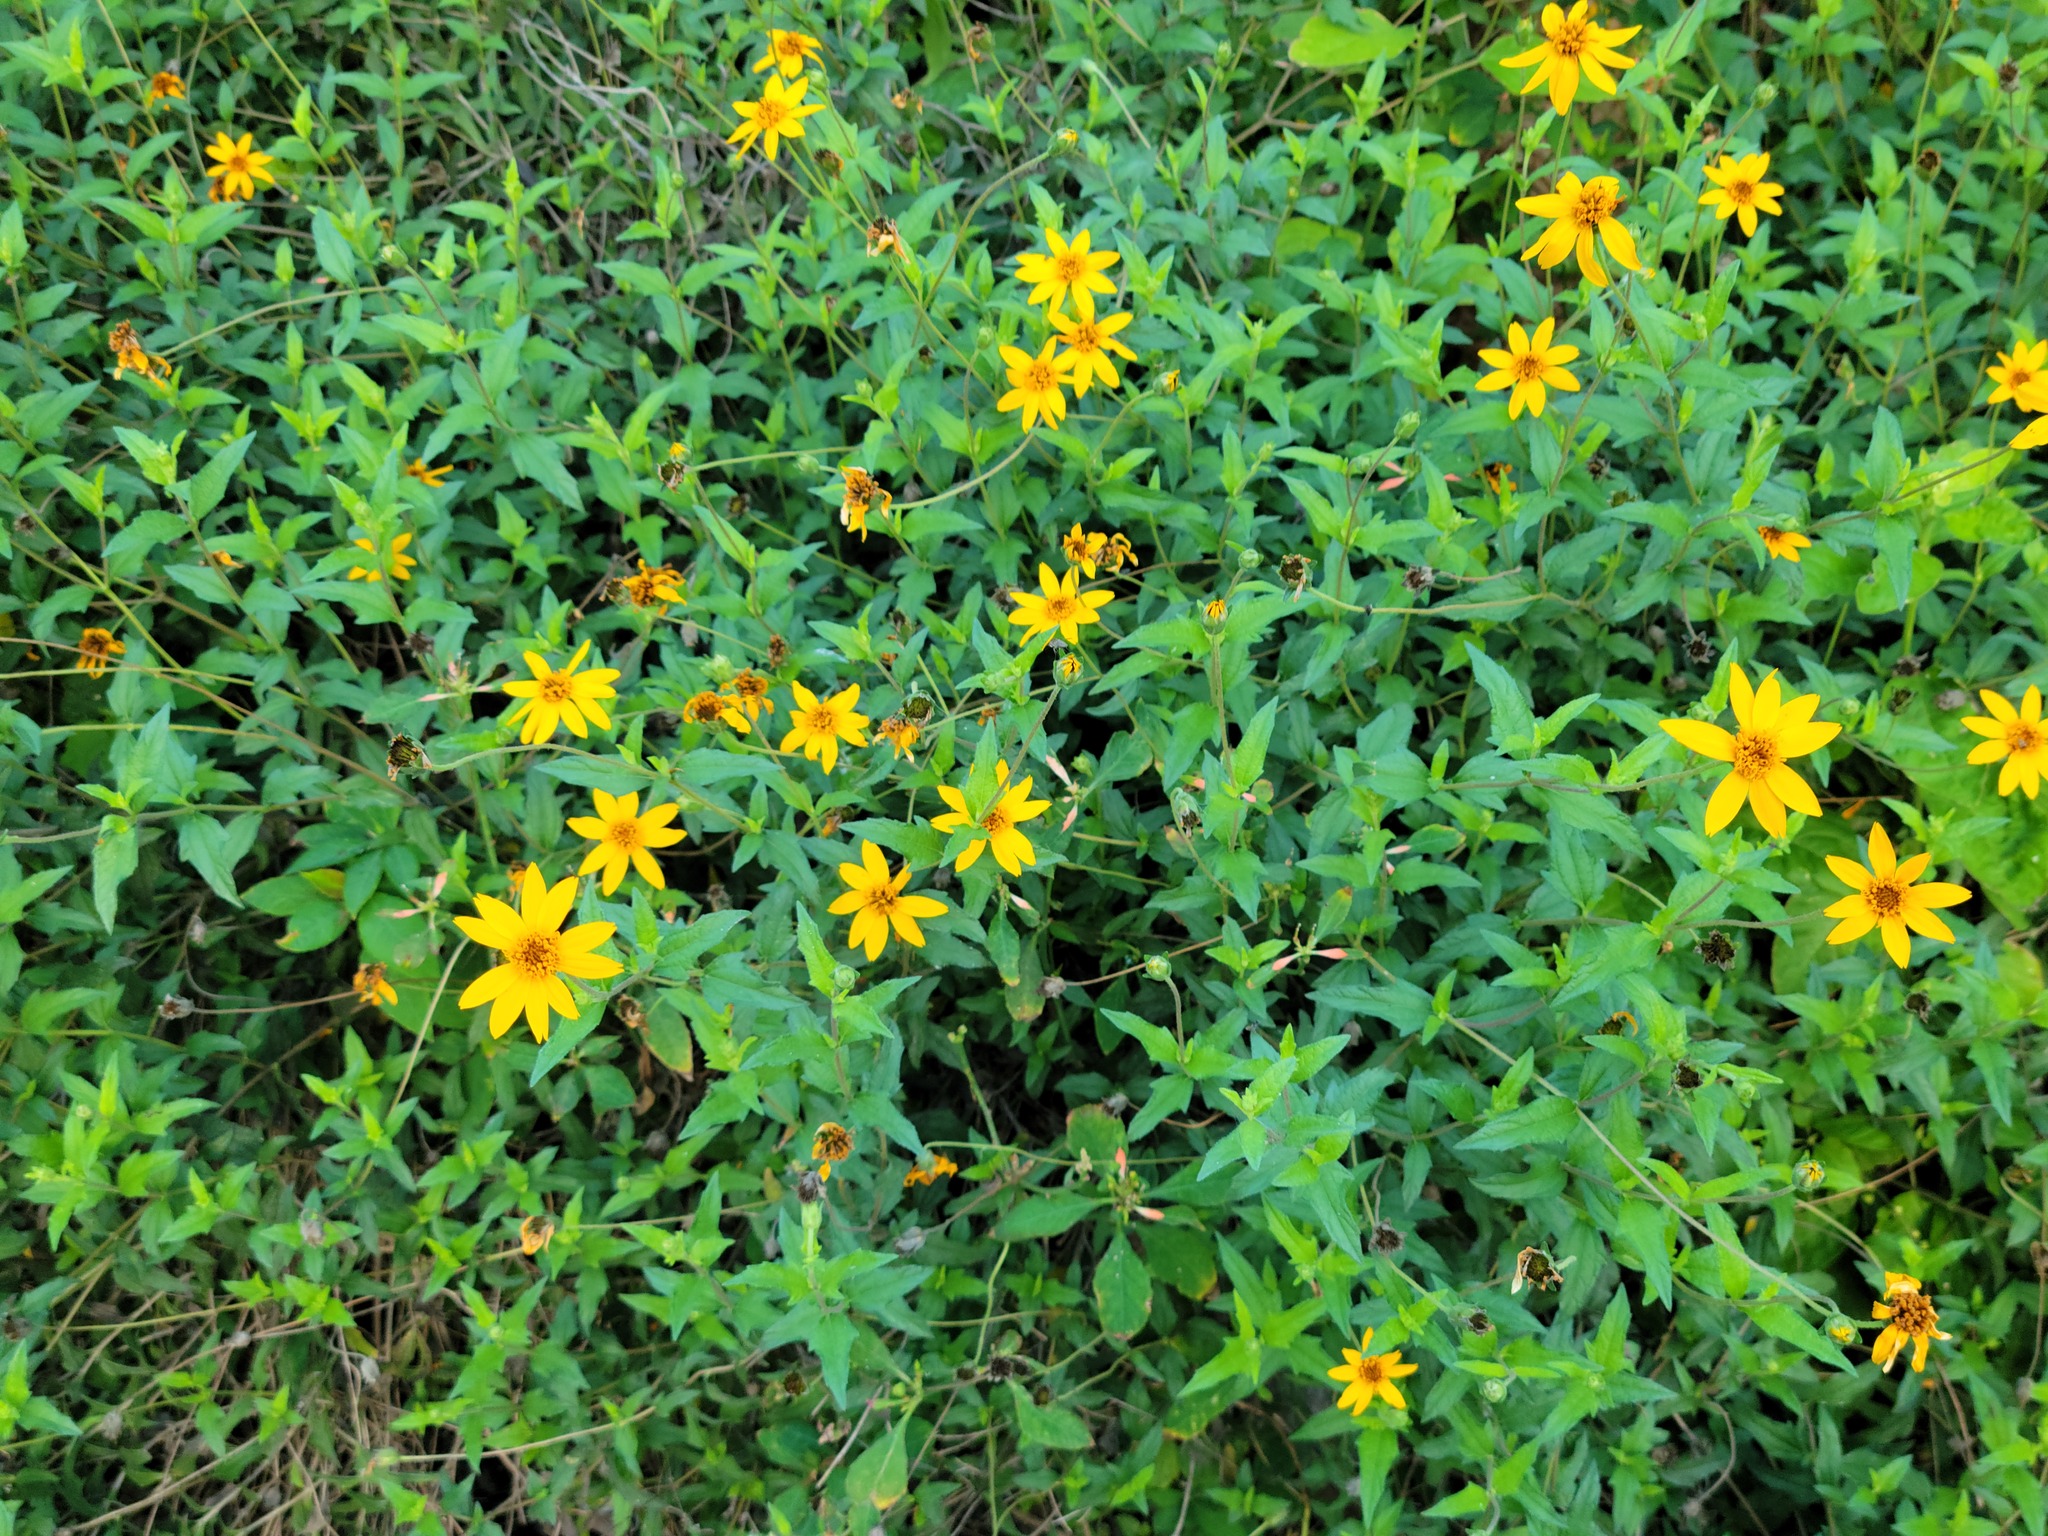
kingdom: Plantae
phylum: Tracheophyta
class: Magnoliopsida
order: Asterales
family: Asteraceae
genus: Wedelia
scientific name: Wedelia acapulcensis
